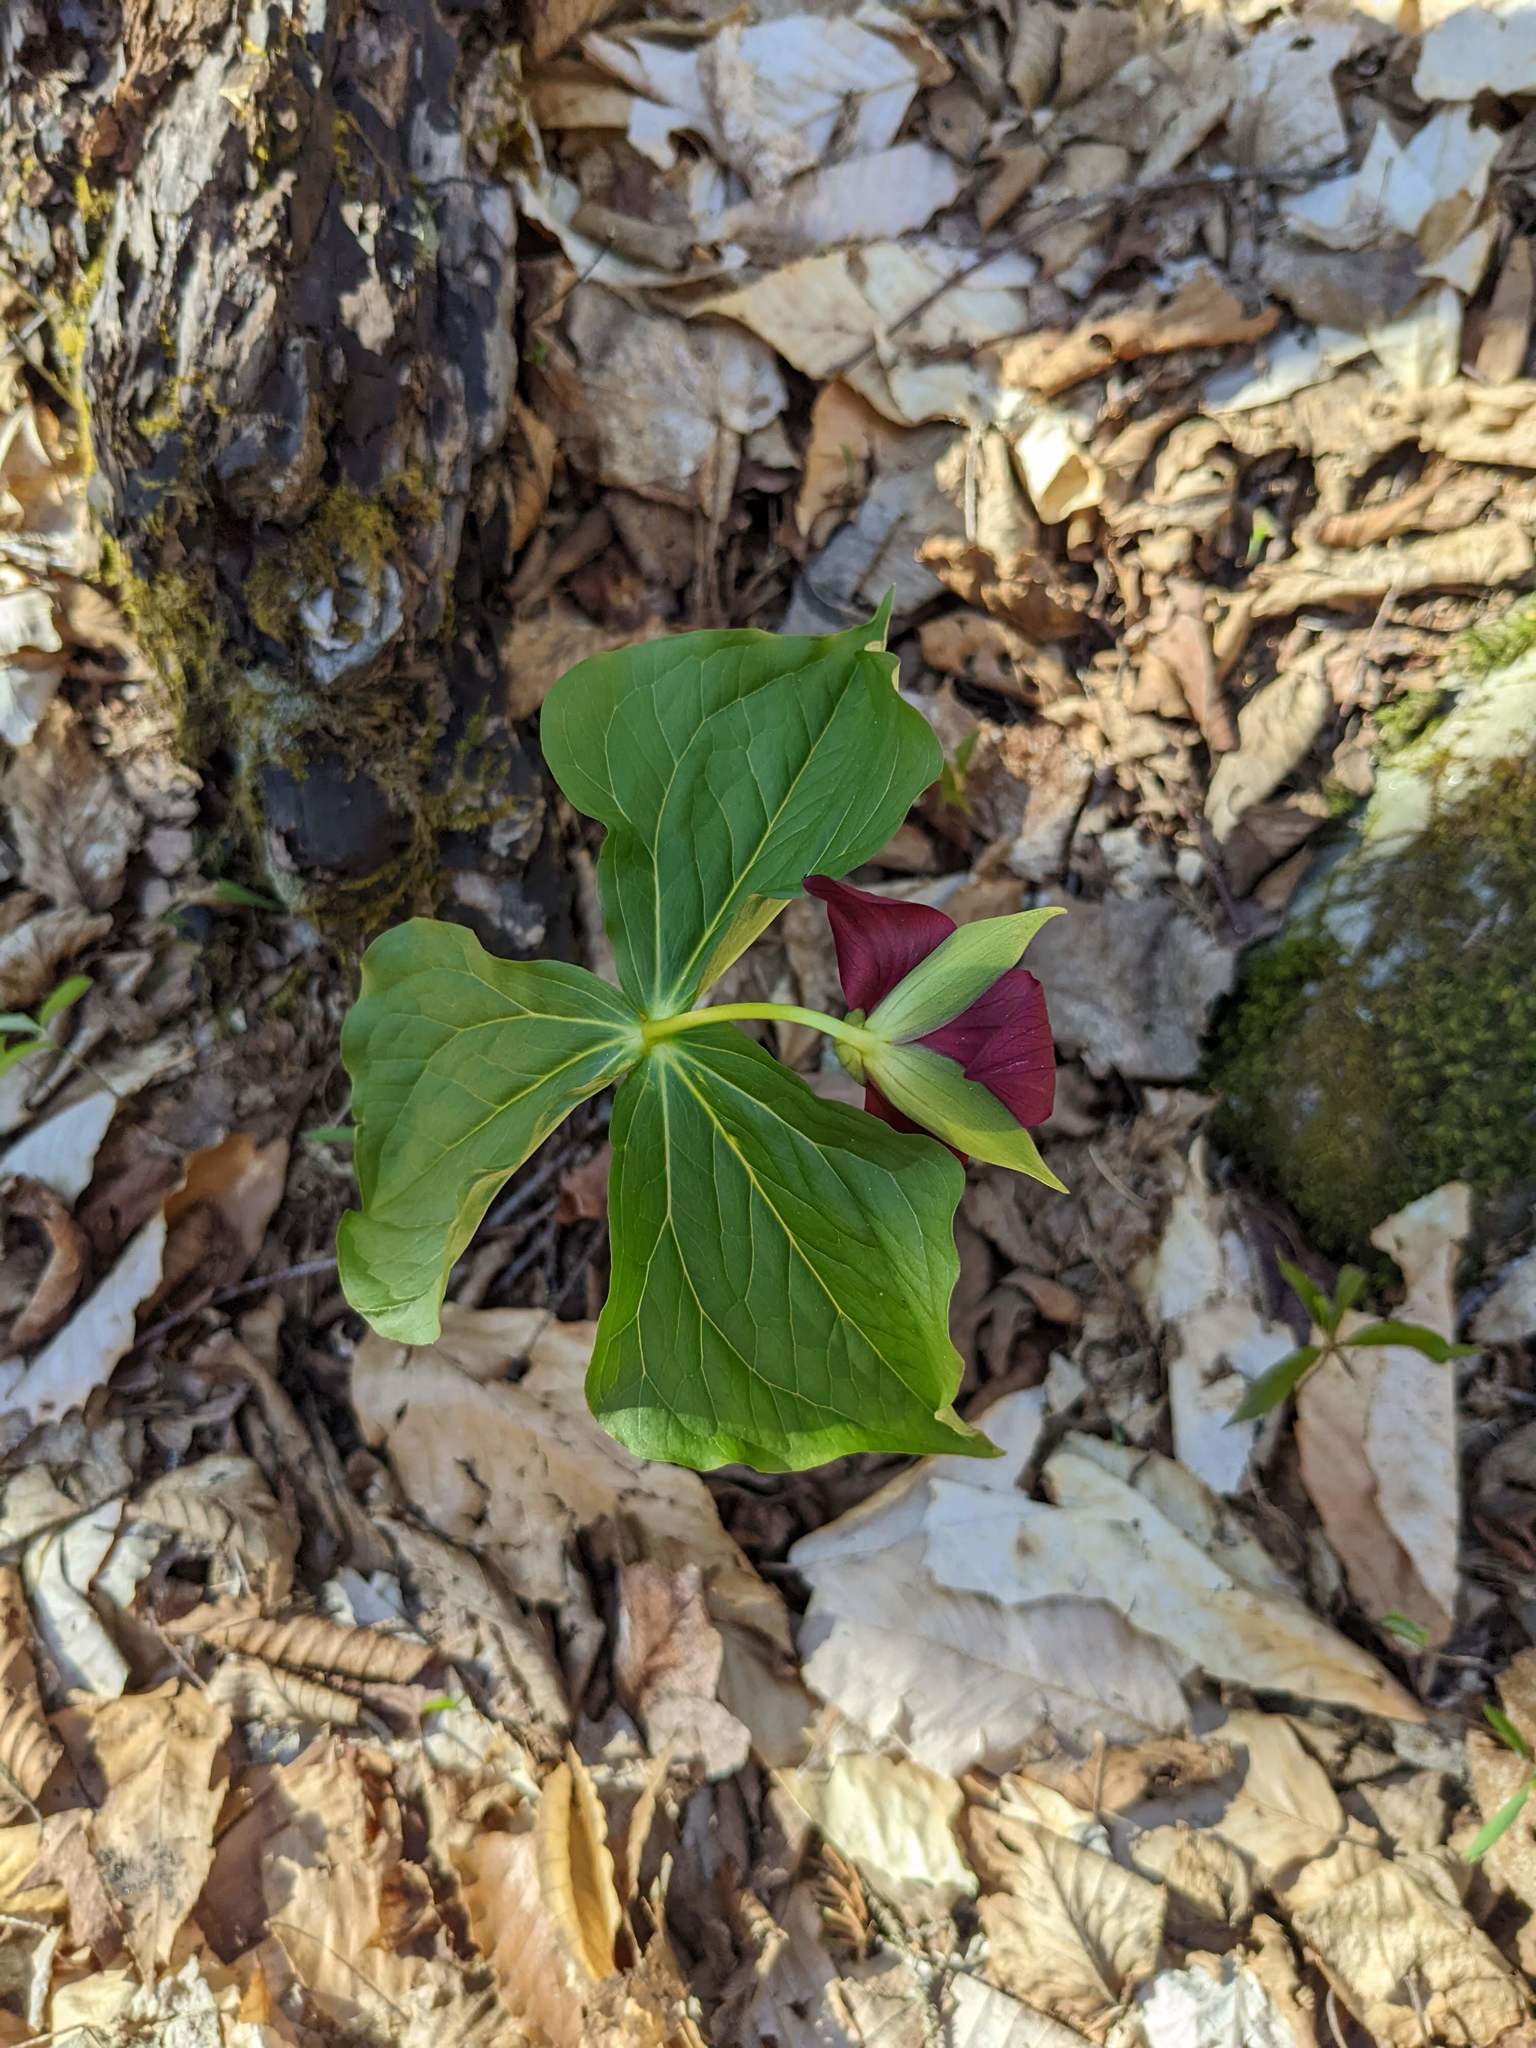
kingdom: Plantae
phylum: Tracheophyta
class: Liliopsida
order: Liliales
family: Melanthiaceae
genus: Trillium
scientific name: Trillium erectum
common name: Purple trillium
